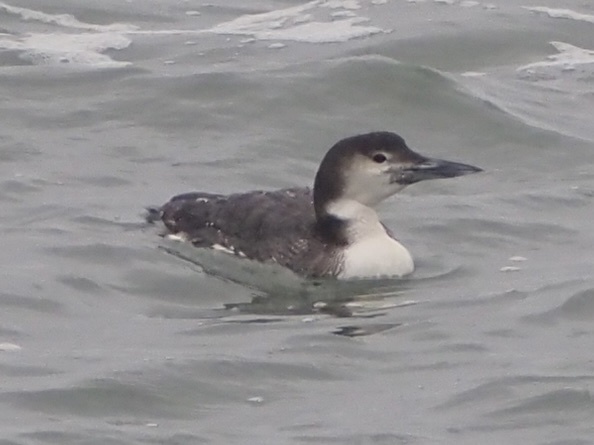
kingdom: Animalia
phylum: Chordata
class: Aves
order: Gaviiformes
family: Gaviidae
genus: Gavia
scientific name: Gavia immer
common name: Common loon
